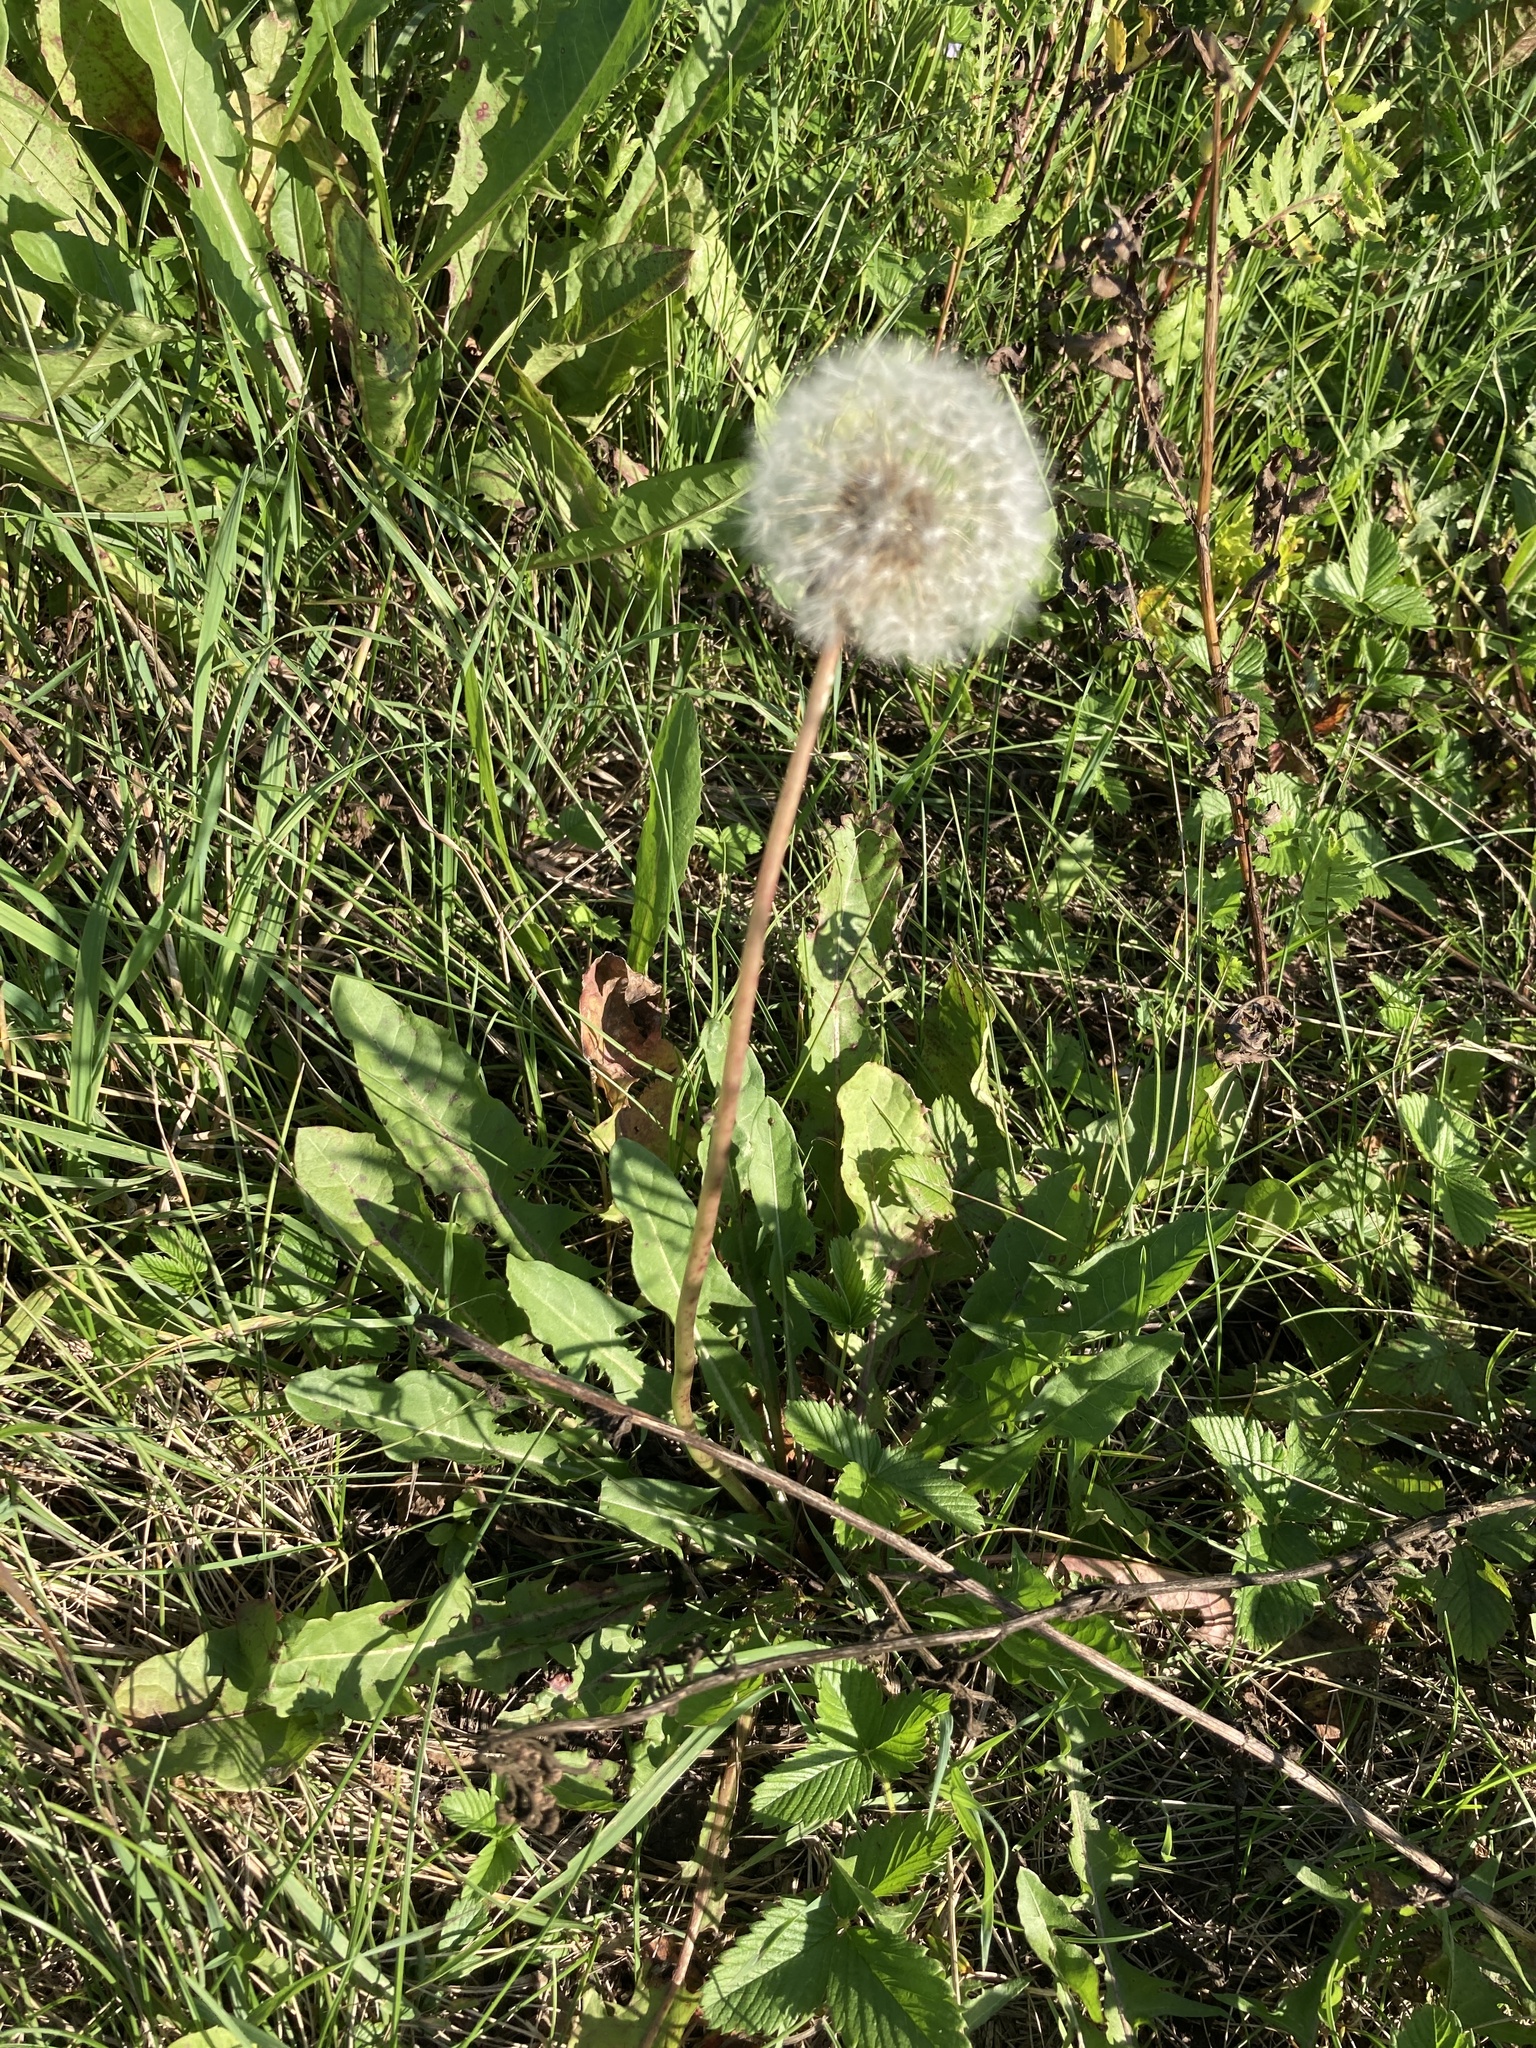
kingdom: Plantae
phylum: Tracheophyta
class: Magnoliopsida
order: Asterales
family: Asteraceae
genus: Taraxacum
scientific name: Taraxacum officinale
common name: Common dandelion
